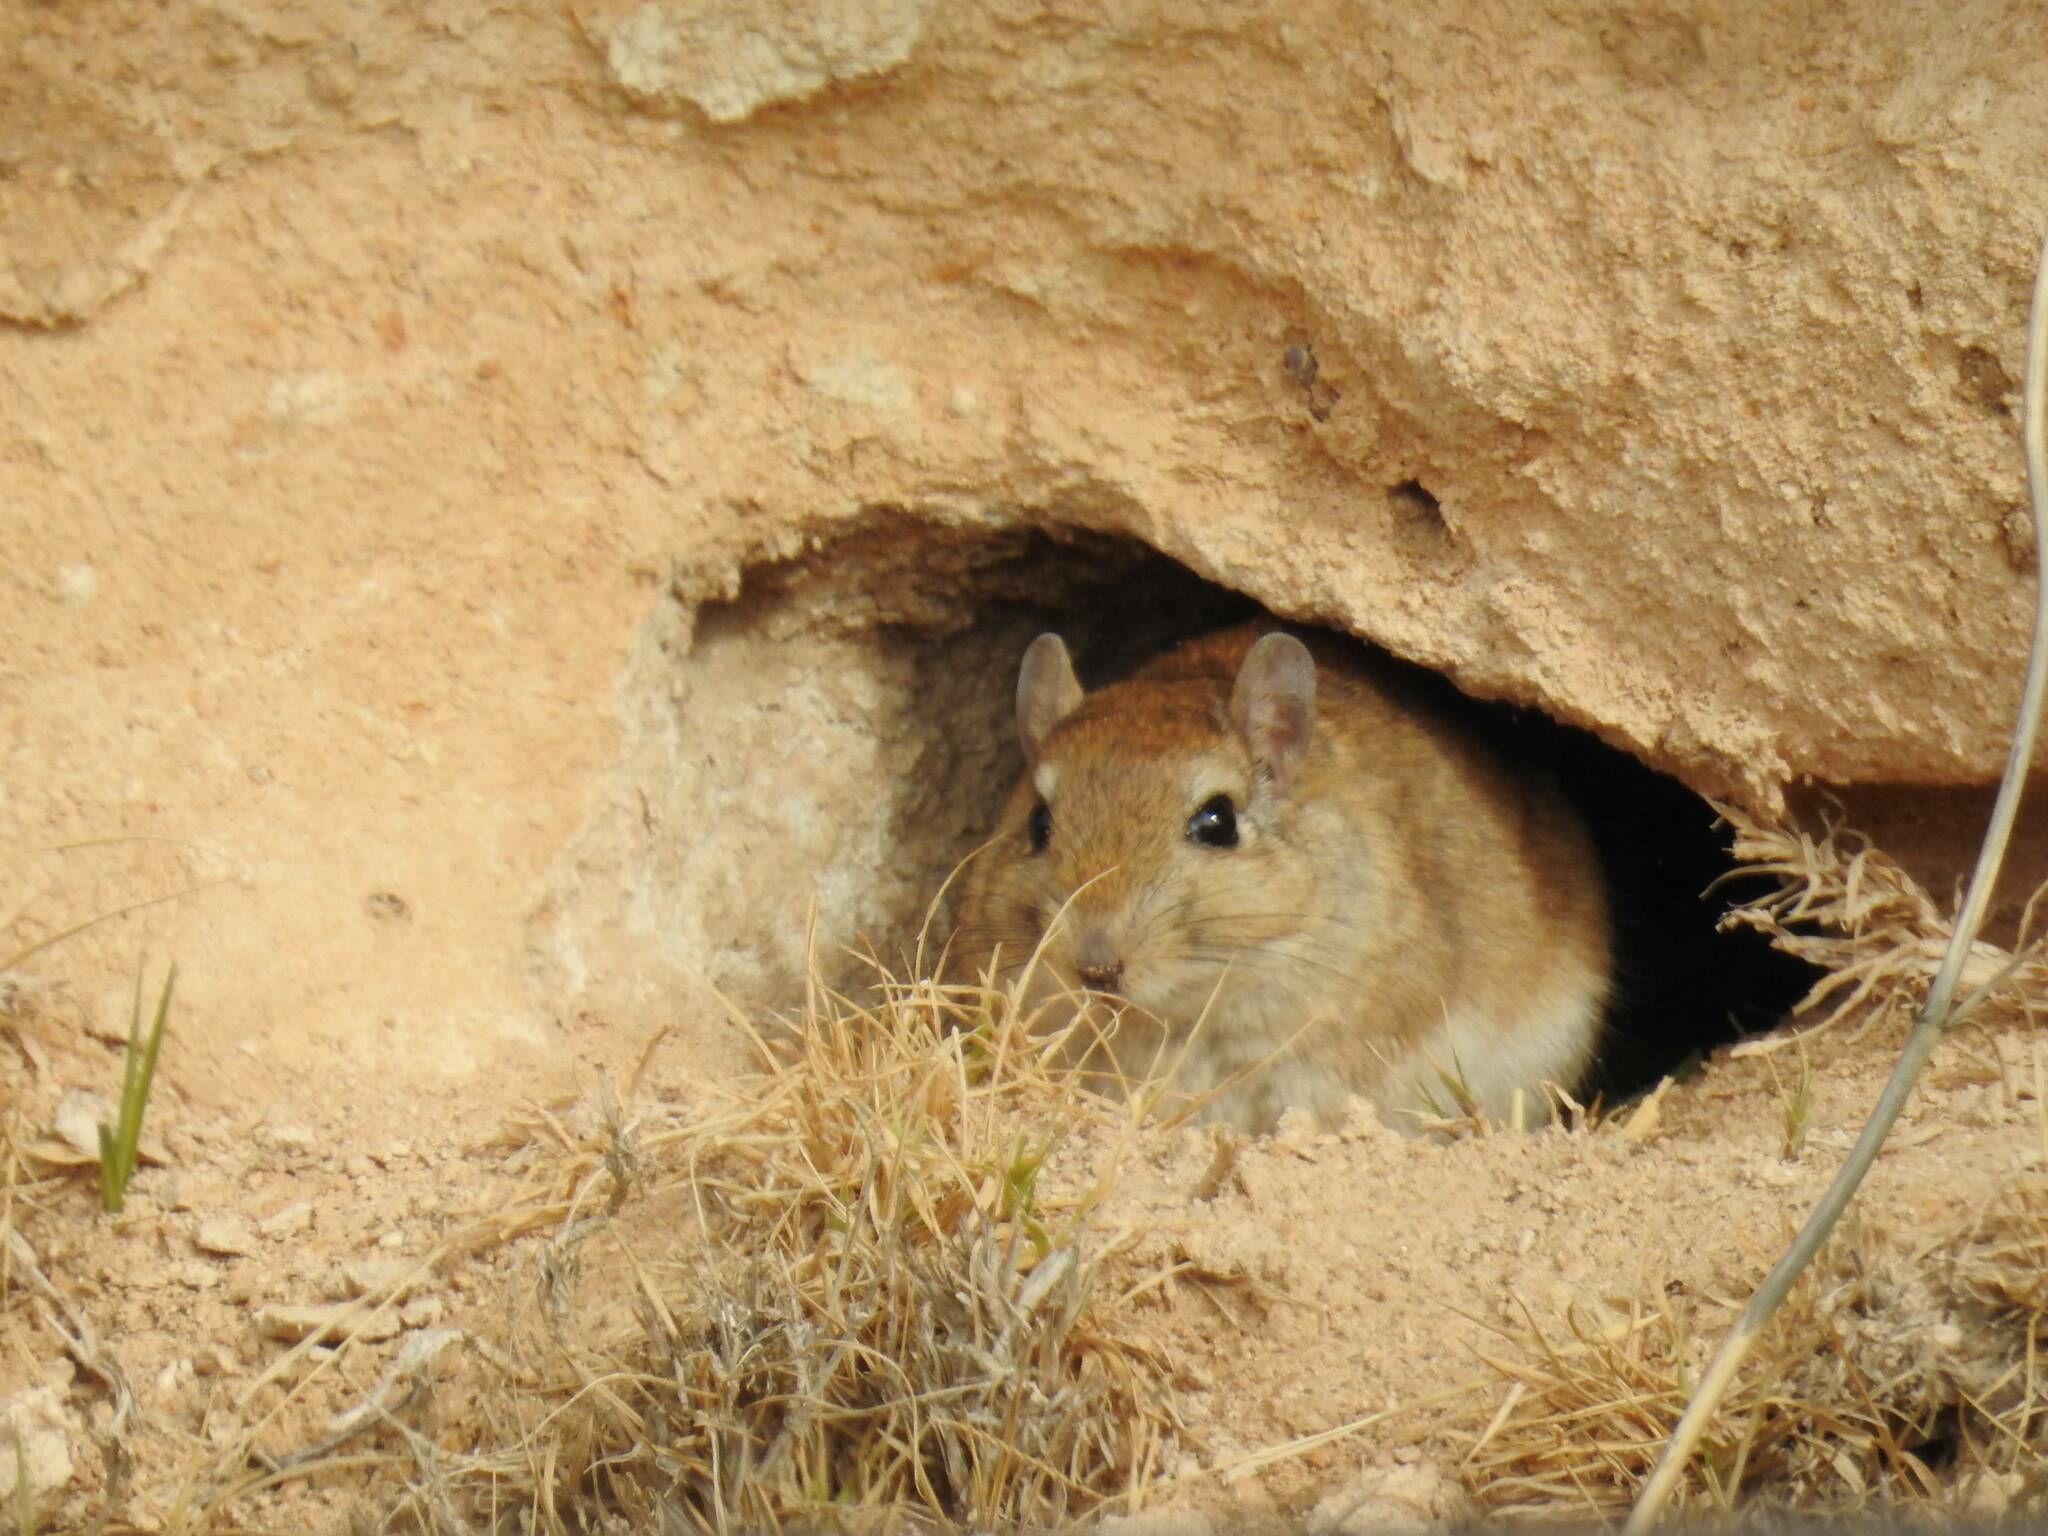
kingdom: Animalia
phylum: Chordata
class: Mammalia
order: Rodentia
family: Muridae
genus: Meriones
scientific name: Meriones shawi
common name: Shaw's jird
